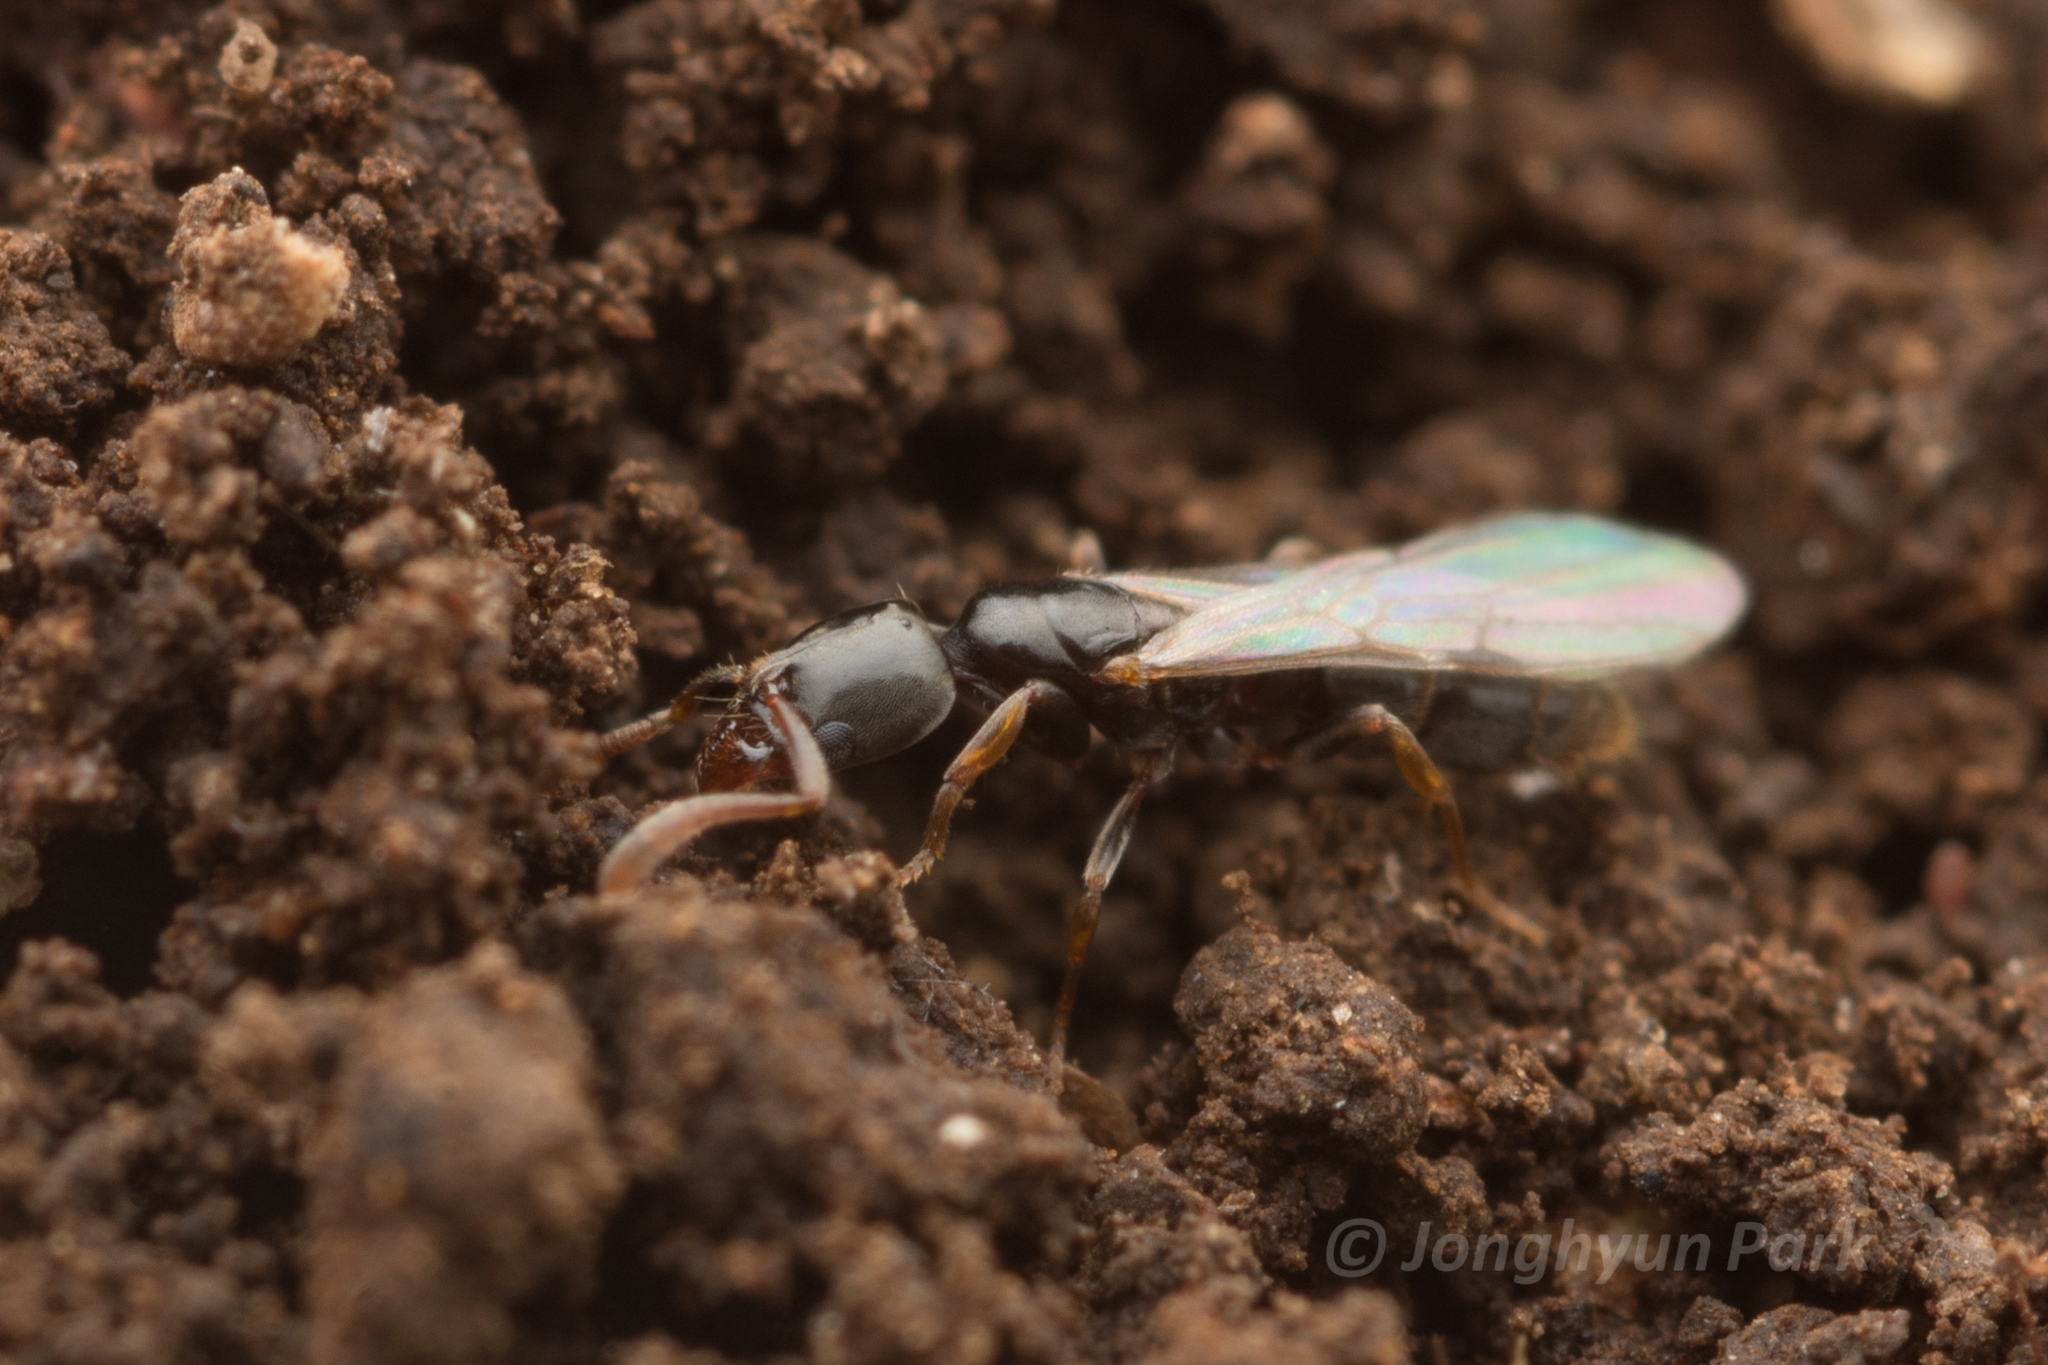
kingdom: Animalia
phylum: Arthropoda
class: Insecta
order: Hymenoptera
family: Formicidae
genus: Hypoponera
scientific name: Hypoponera
